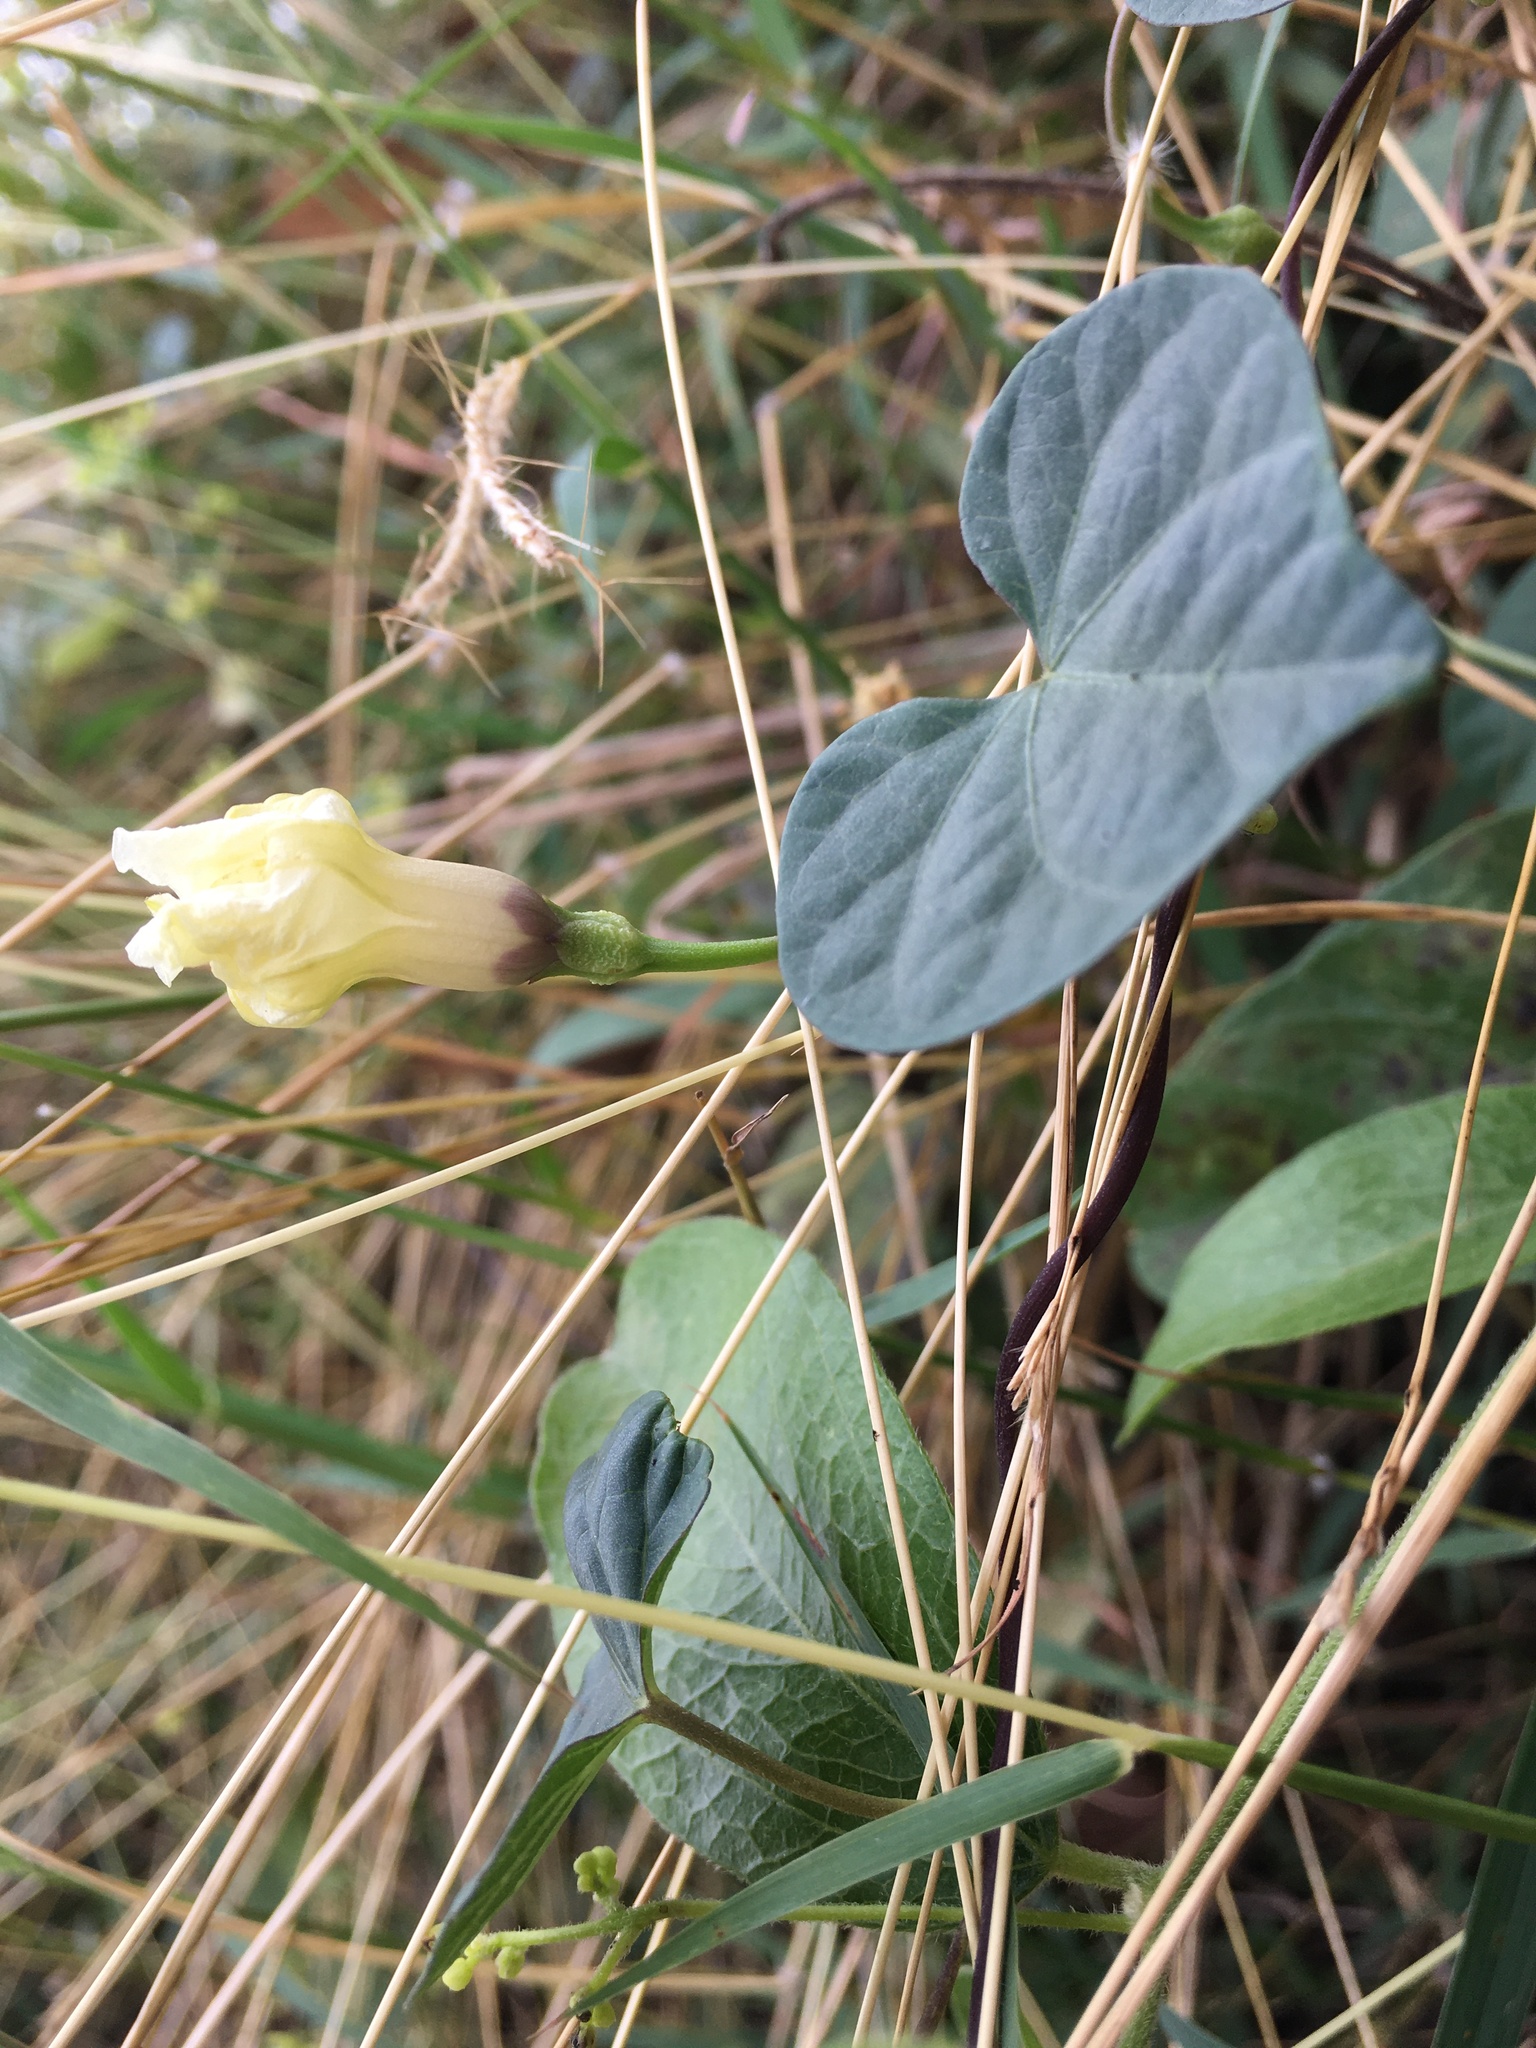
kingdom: Plantae
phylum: Tracheophyta
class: Magnoliopsida
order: Solanales
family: Convolvulaceae
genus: Ipomoea
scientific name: Ipomoea obscura
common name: Obscure morning-glory
